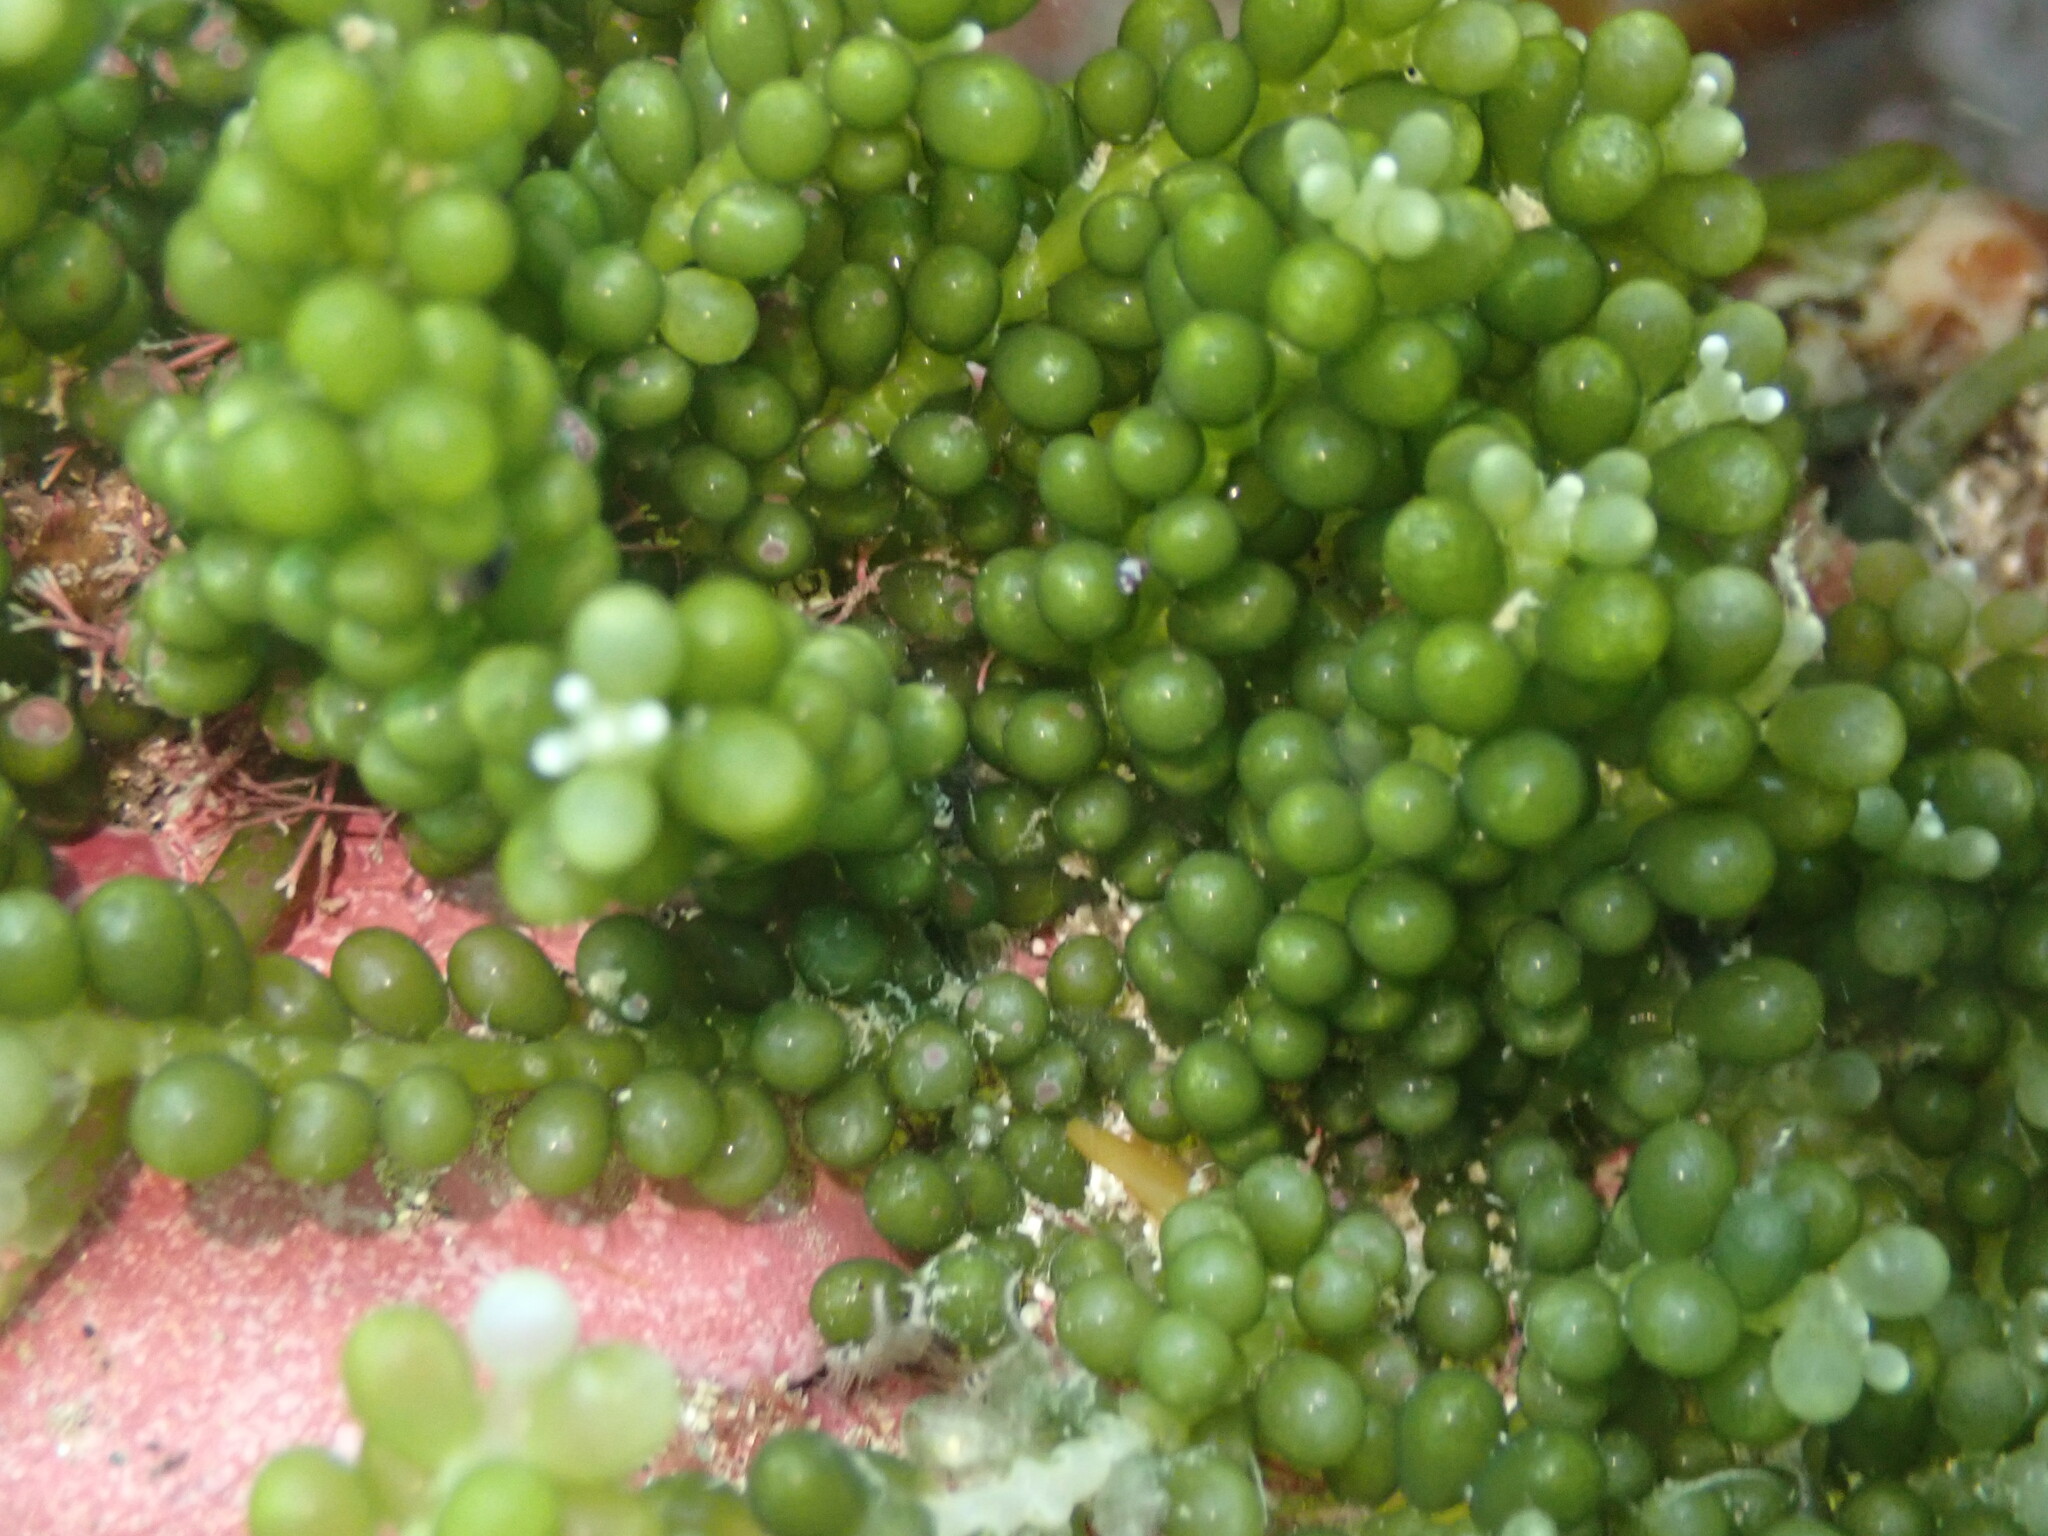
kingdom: Plantae
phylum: Chlorophyta
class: Ulvophyceae
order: Bryopsidales
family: Caulerpaceae
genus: Caulerpa
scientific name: Caulerpa geminata
